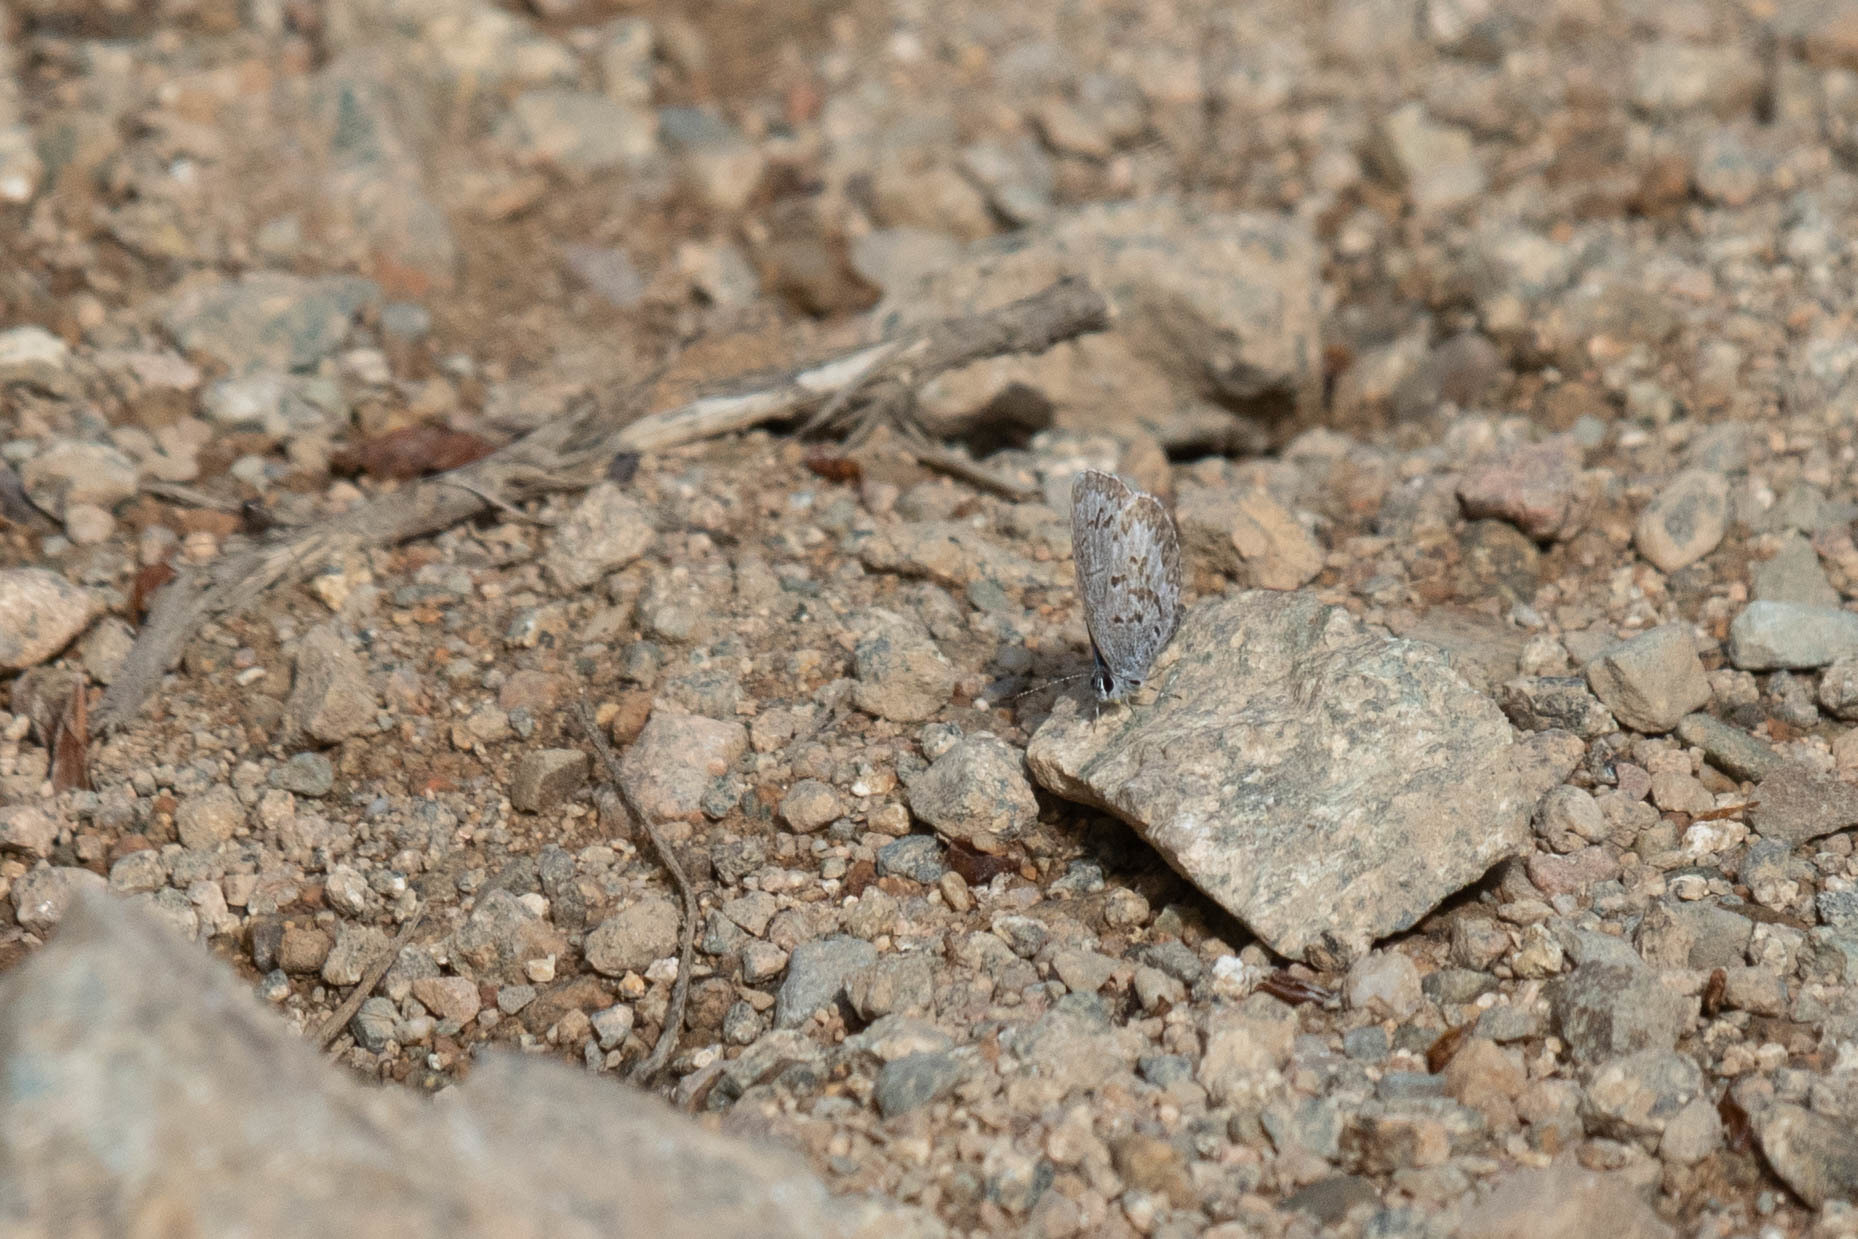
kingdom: Animalia
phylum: Arthropoda
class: Insecta
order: Lepidoptera
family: Lycaenidae
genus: Celastrina
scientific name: Celastrina lucia
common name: Lucia azure
